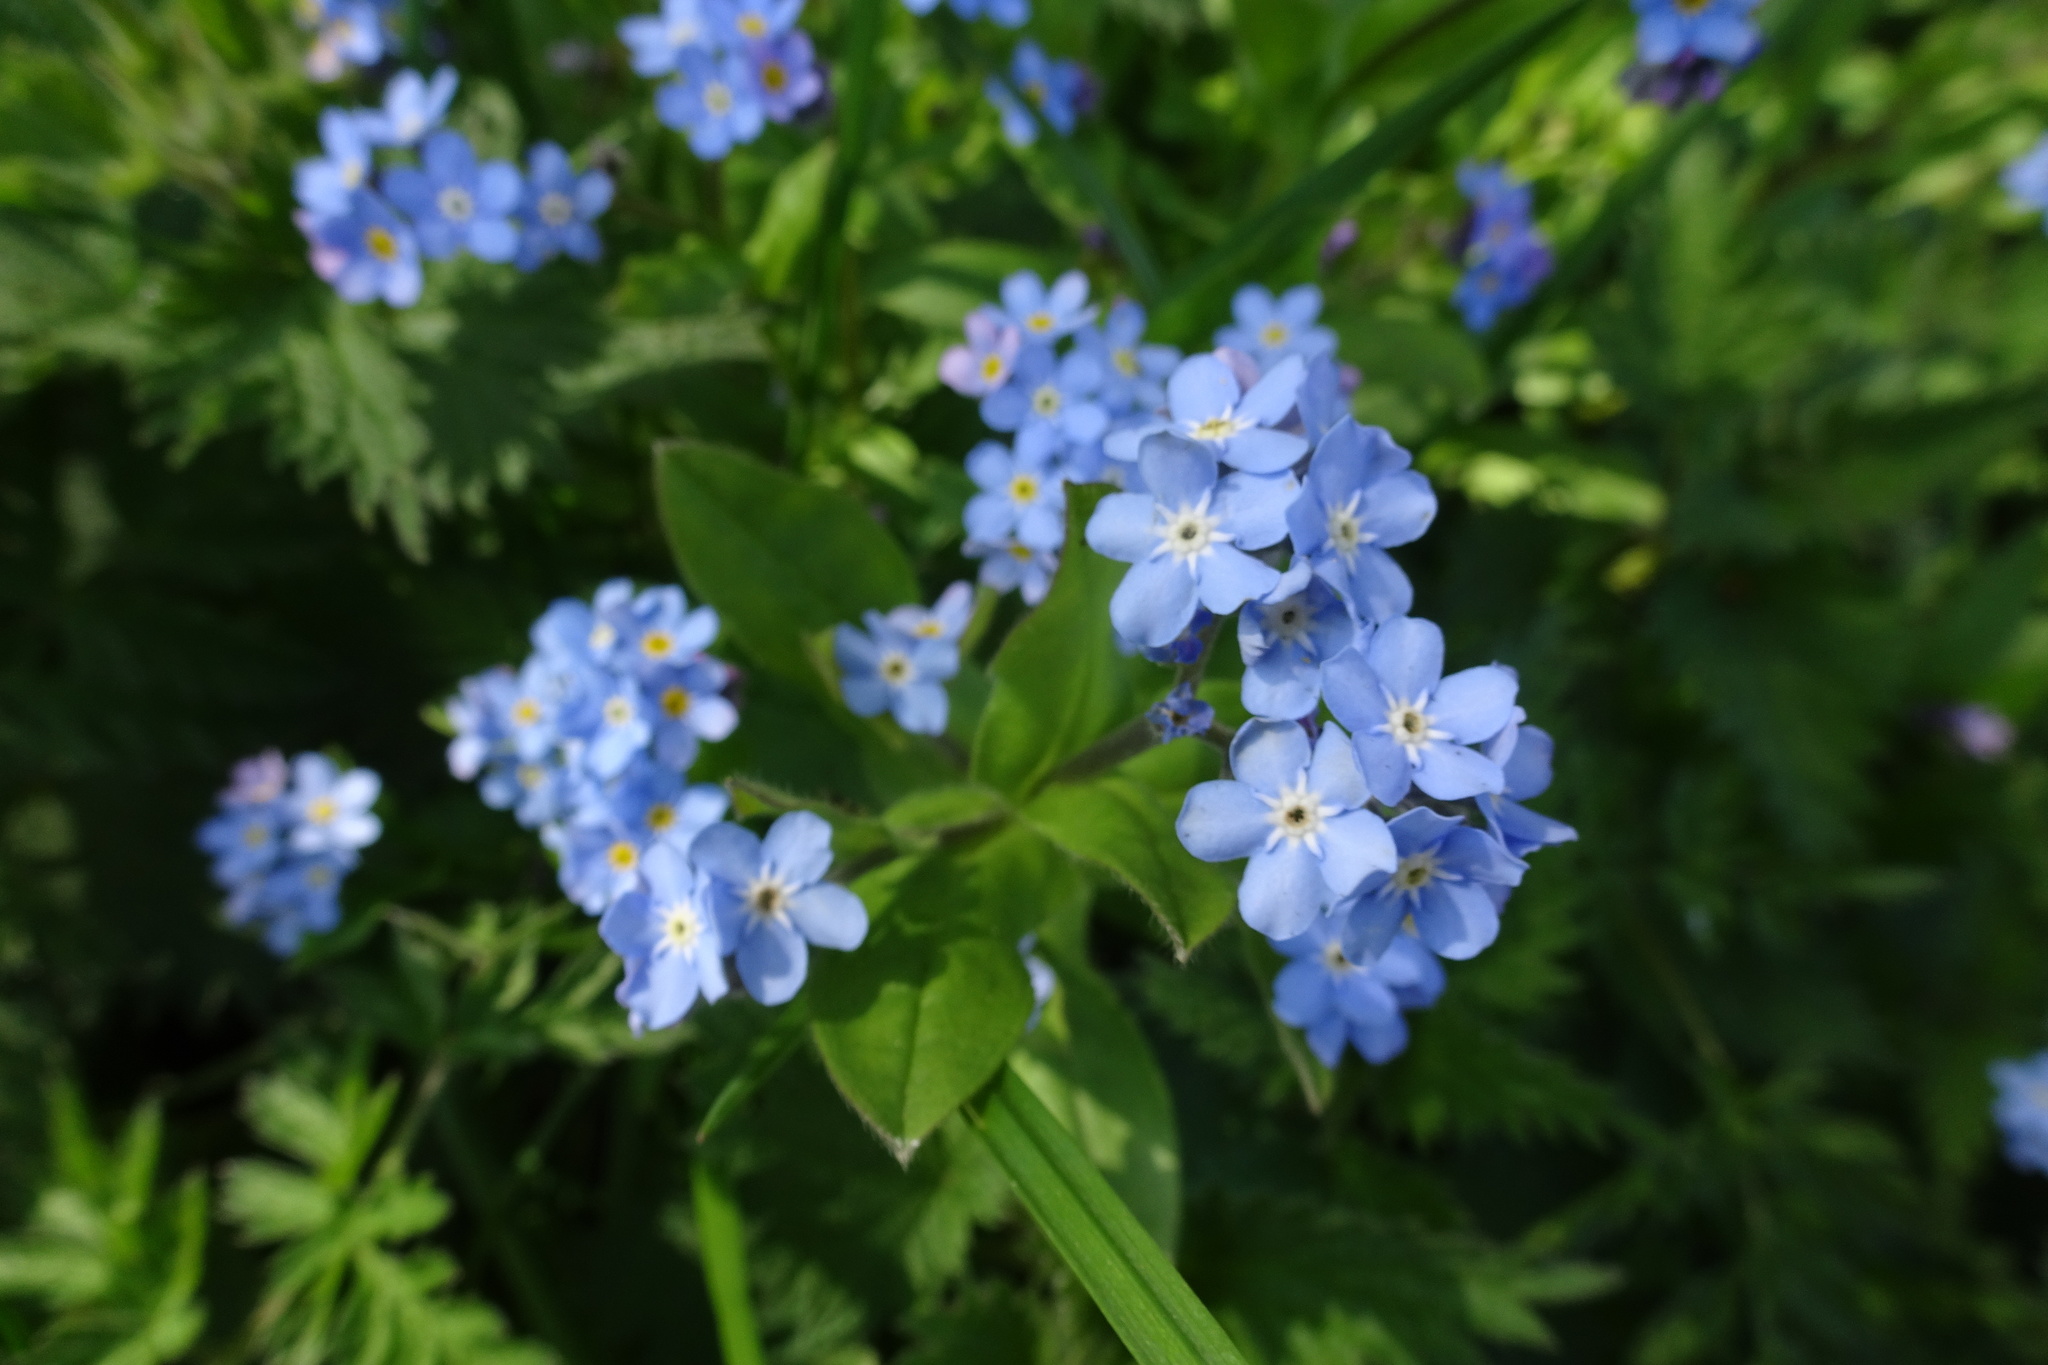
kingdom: Plantae
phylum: Tracheophyta
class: Magnoliopsida
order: Boraginales
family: Boraginaceae
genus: Myosotis
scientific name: Myosotis sylvatica
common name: Wood forget-me-not
